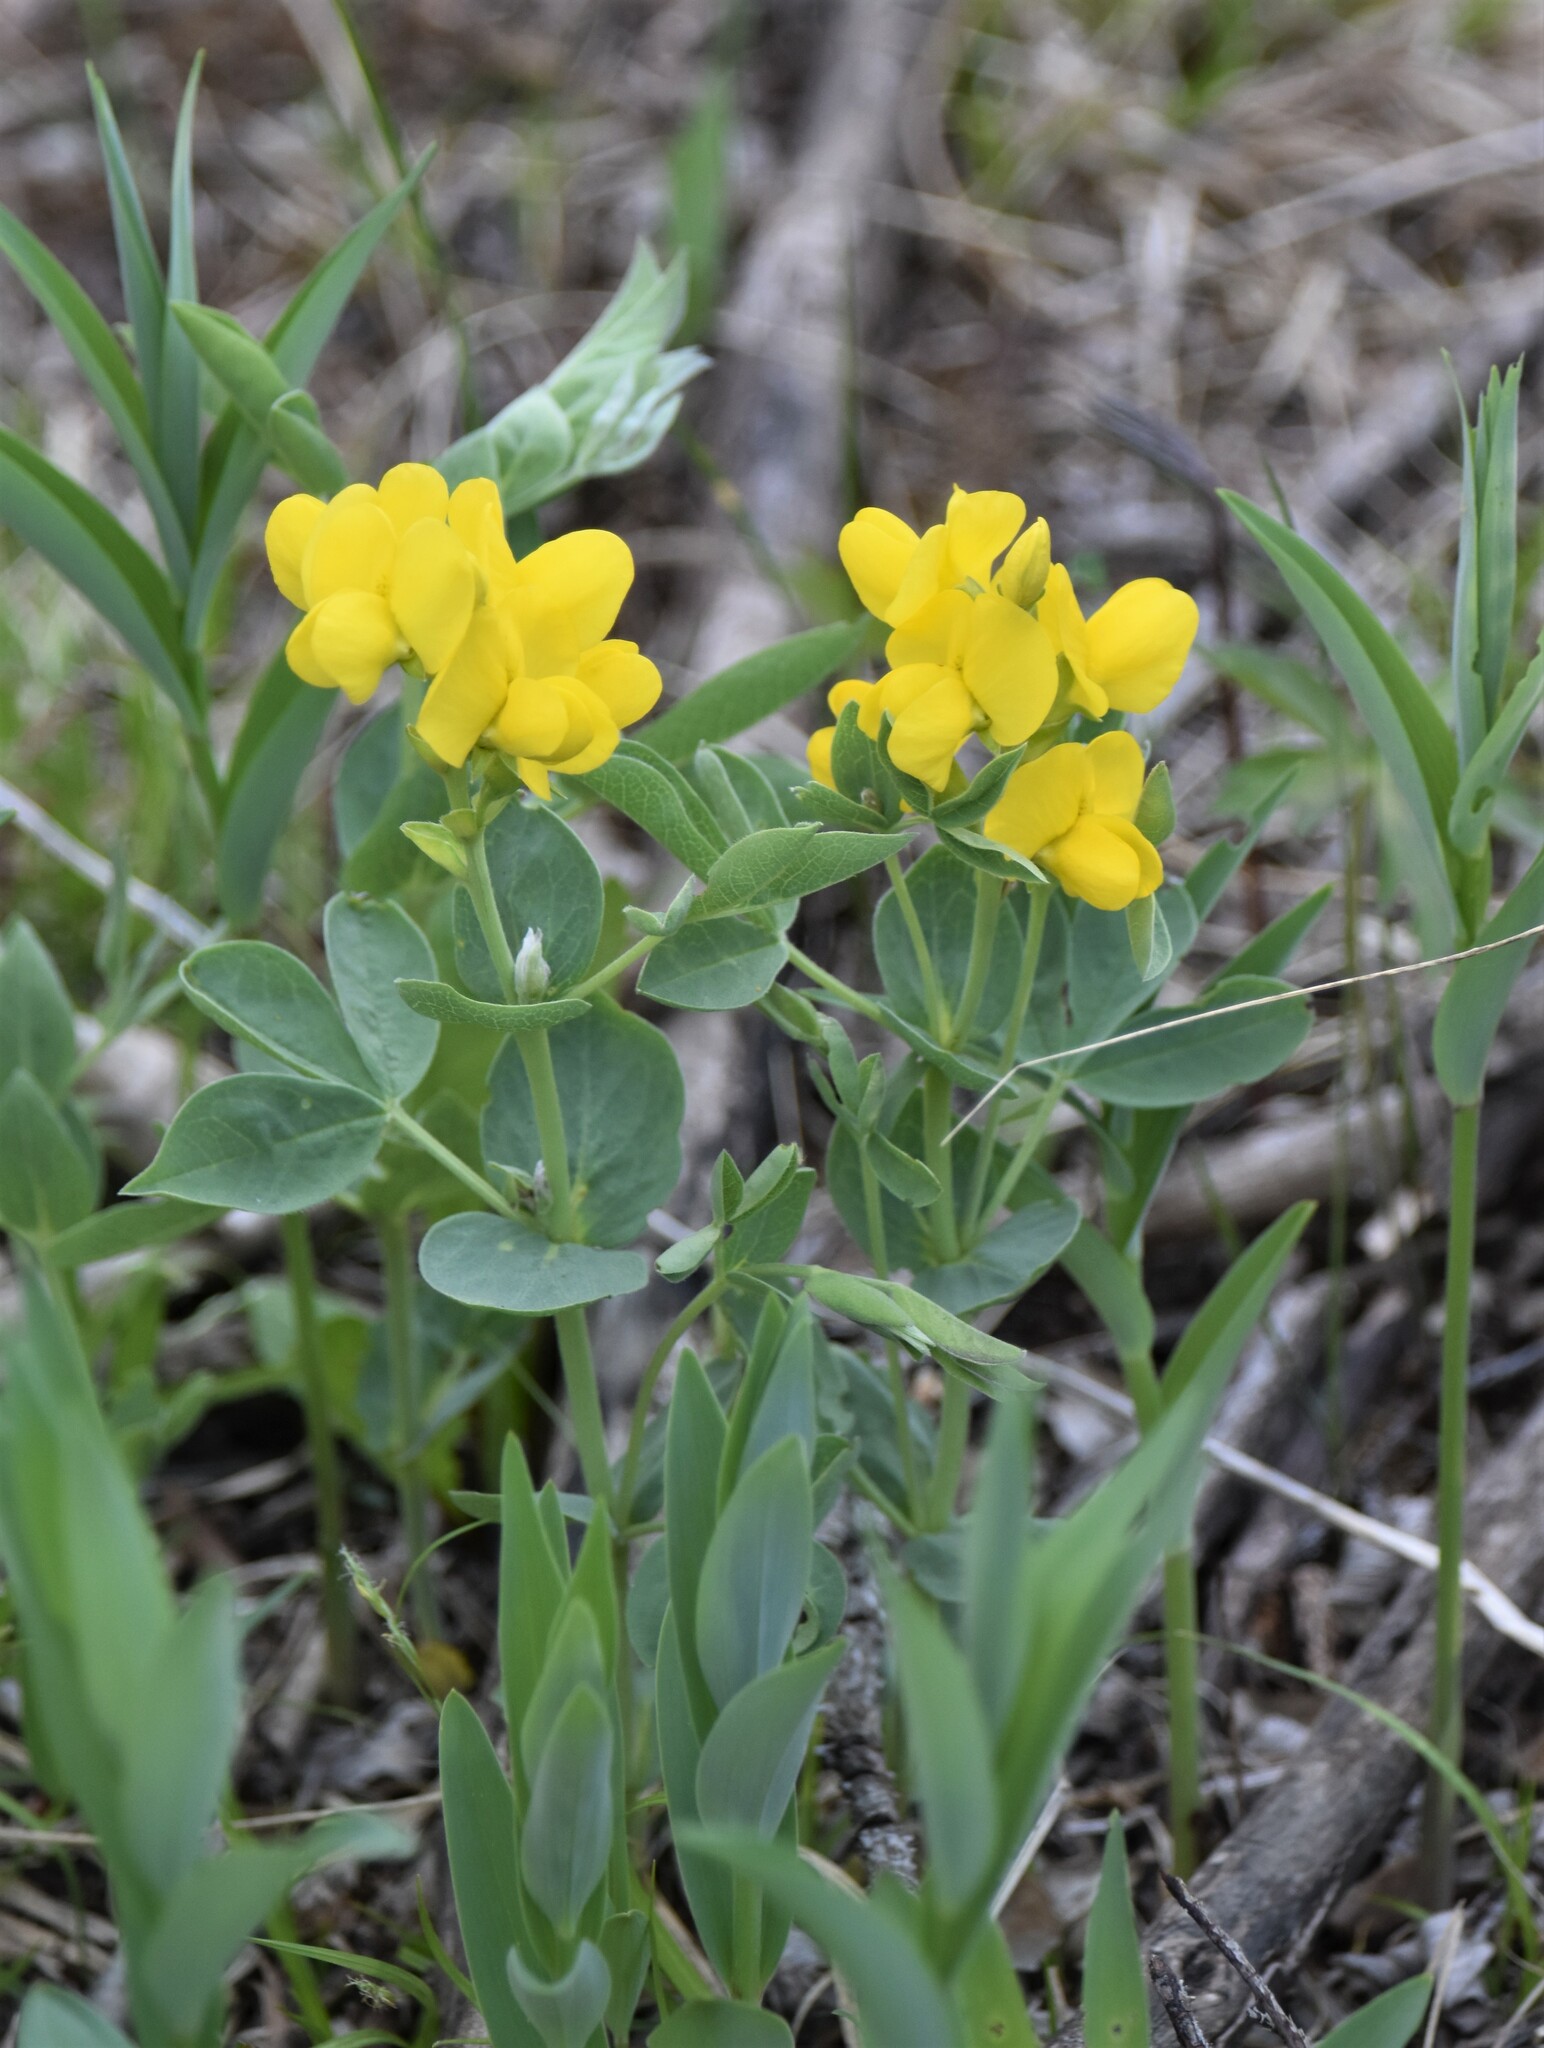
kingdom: Plantae
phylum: Tracheophyta
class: Magnoliopsida
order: Fabales
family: Fabaceae
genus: Thermopsis
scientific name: Thermopsis rhombifolia
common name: Circle-pod-pea
